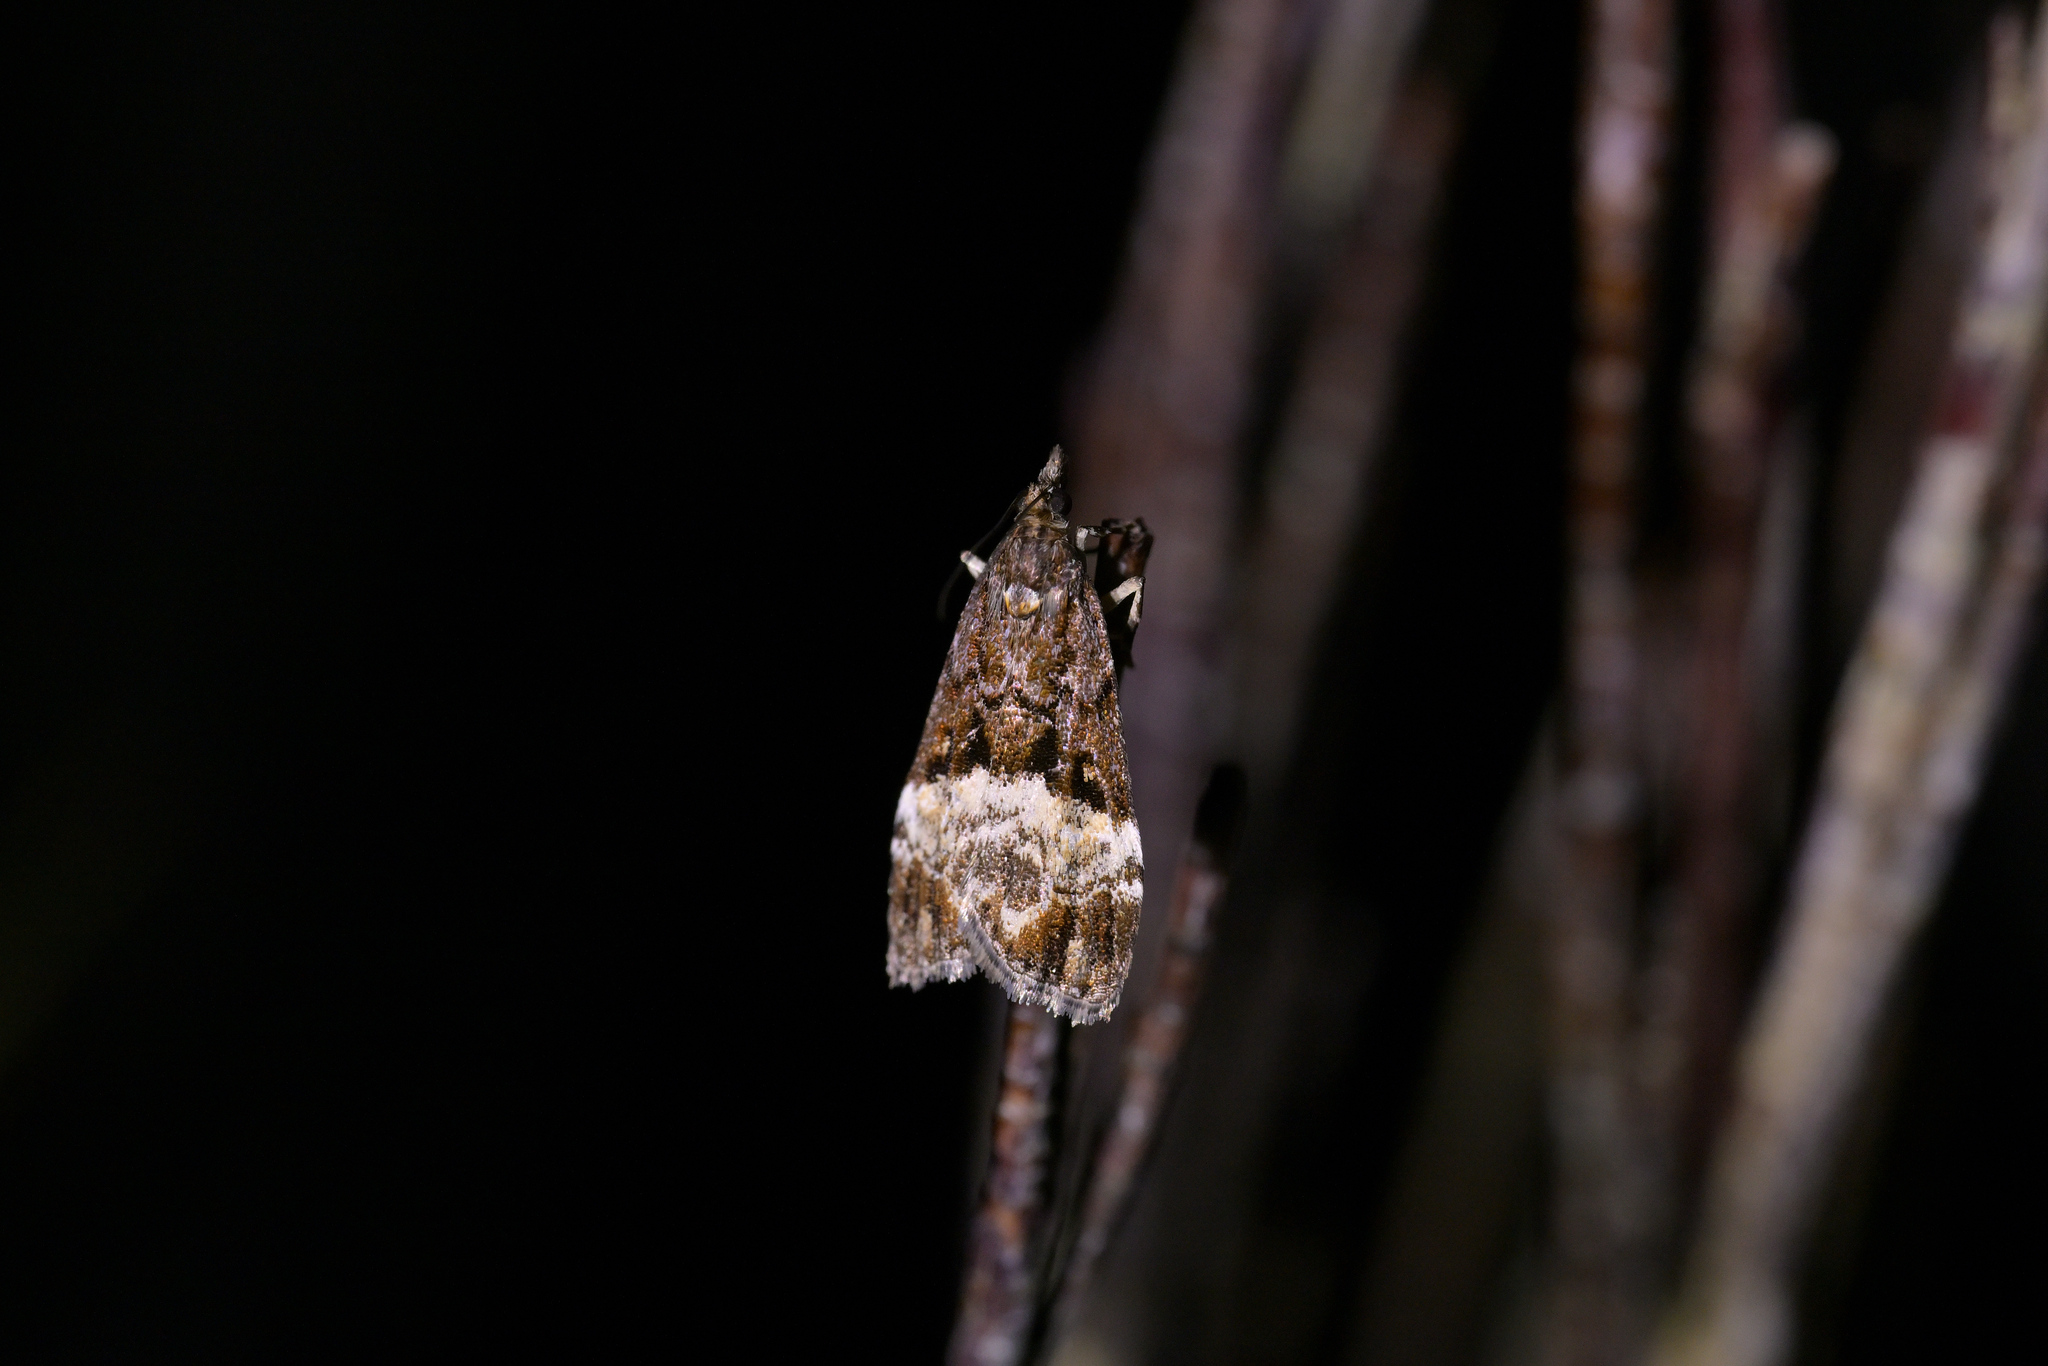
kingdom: Animalia
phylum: Arthropoda
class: Insecta
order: Lepidoptera
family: Crambidae
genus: Scoparia
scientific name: Scoparia minusculalis
